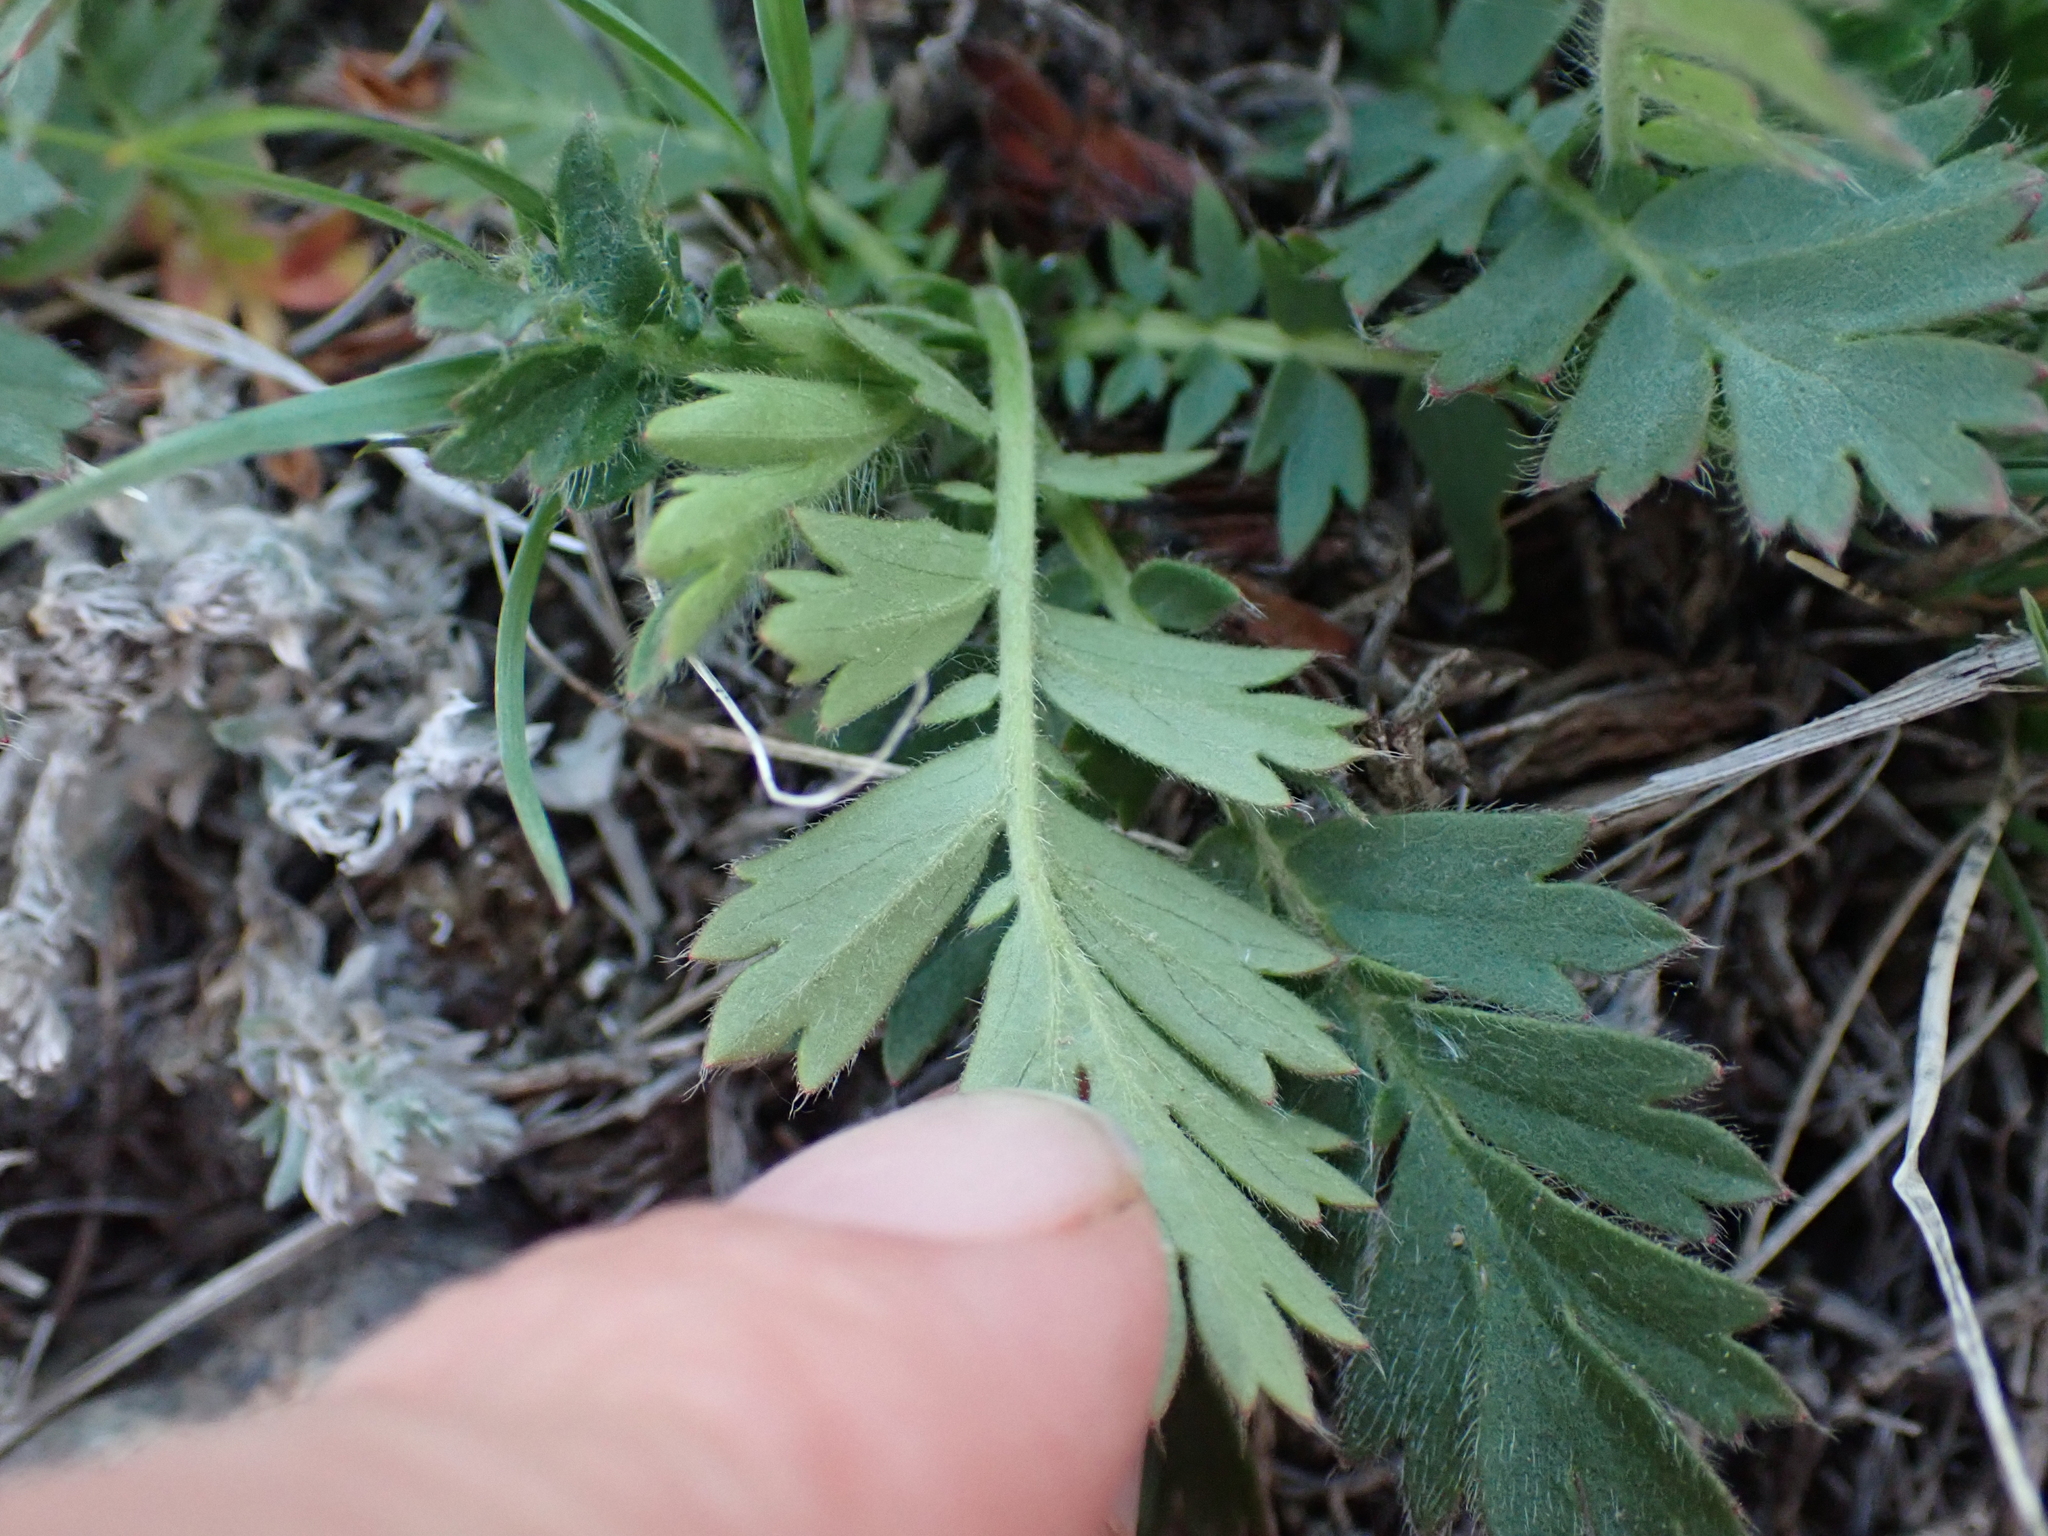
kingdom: Plantae
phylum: Tracheophyta
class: Magnoliopsida
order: Rosales
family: Rosaceae
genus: Geum
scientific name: Geum triflorum
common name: Old man's whiskers
